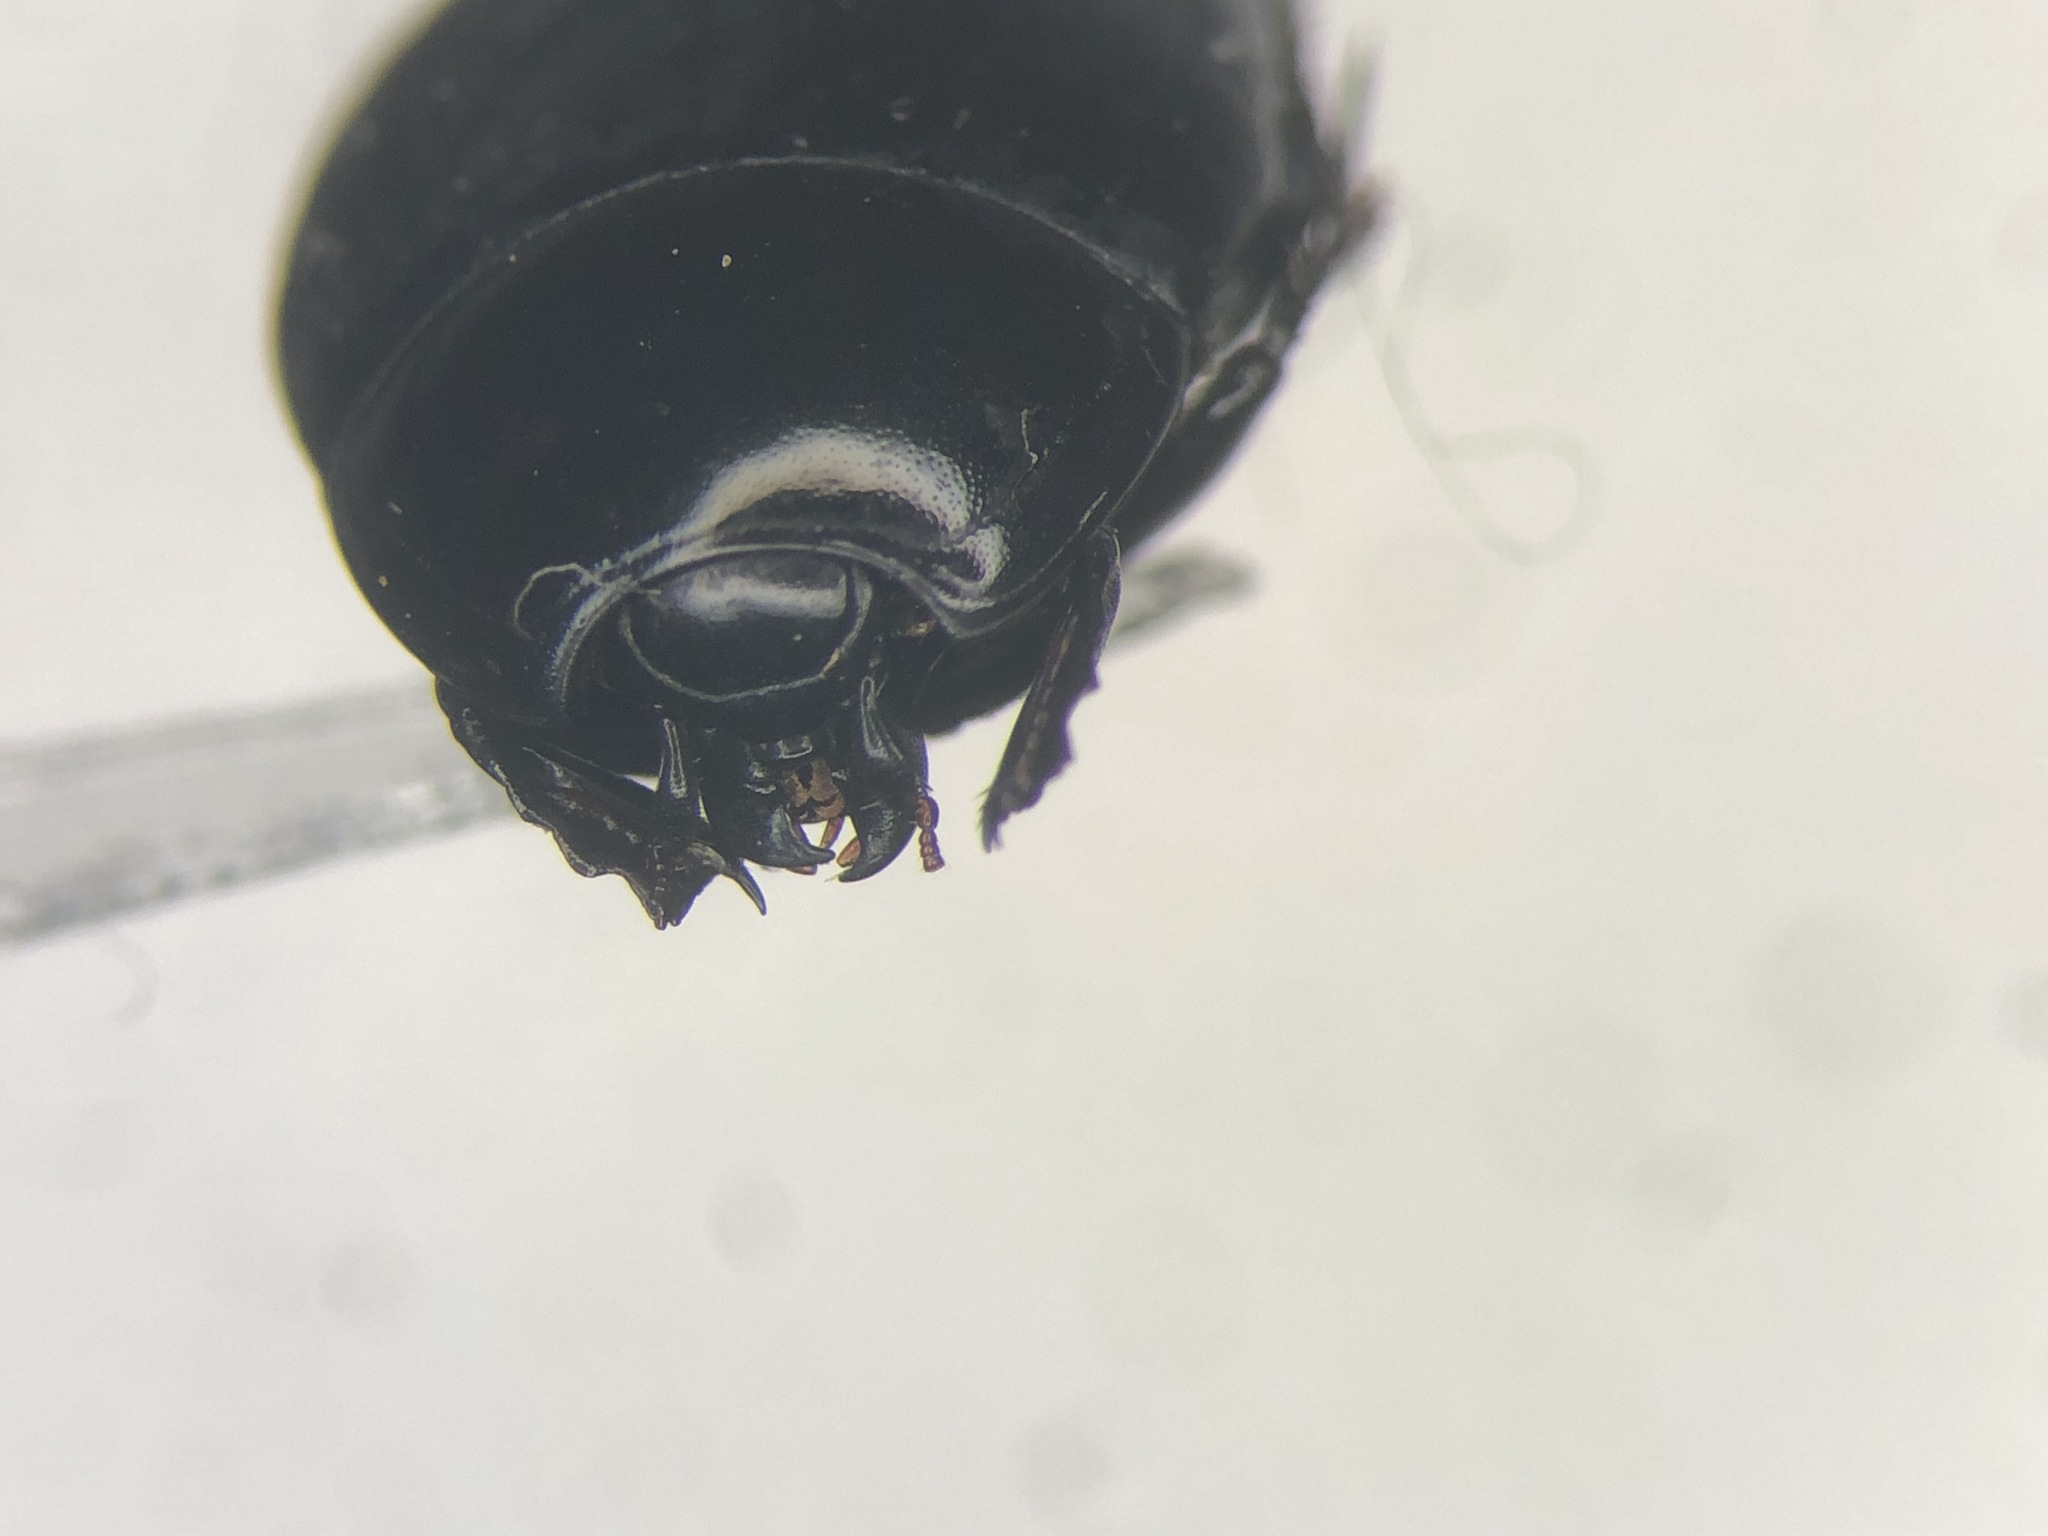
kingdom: Animalia
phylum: Arthropoda
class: Insecta
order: Coleoptera
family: Histeridae
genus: Hister
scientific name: Hister furtivus
